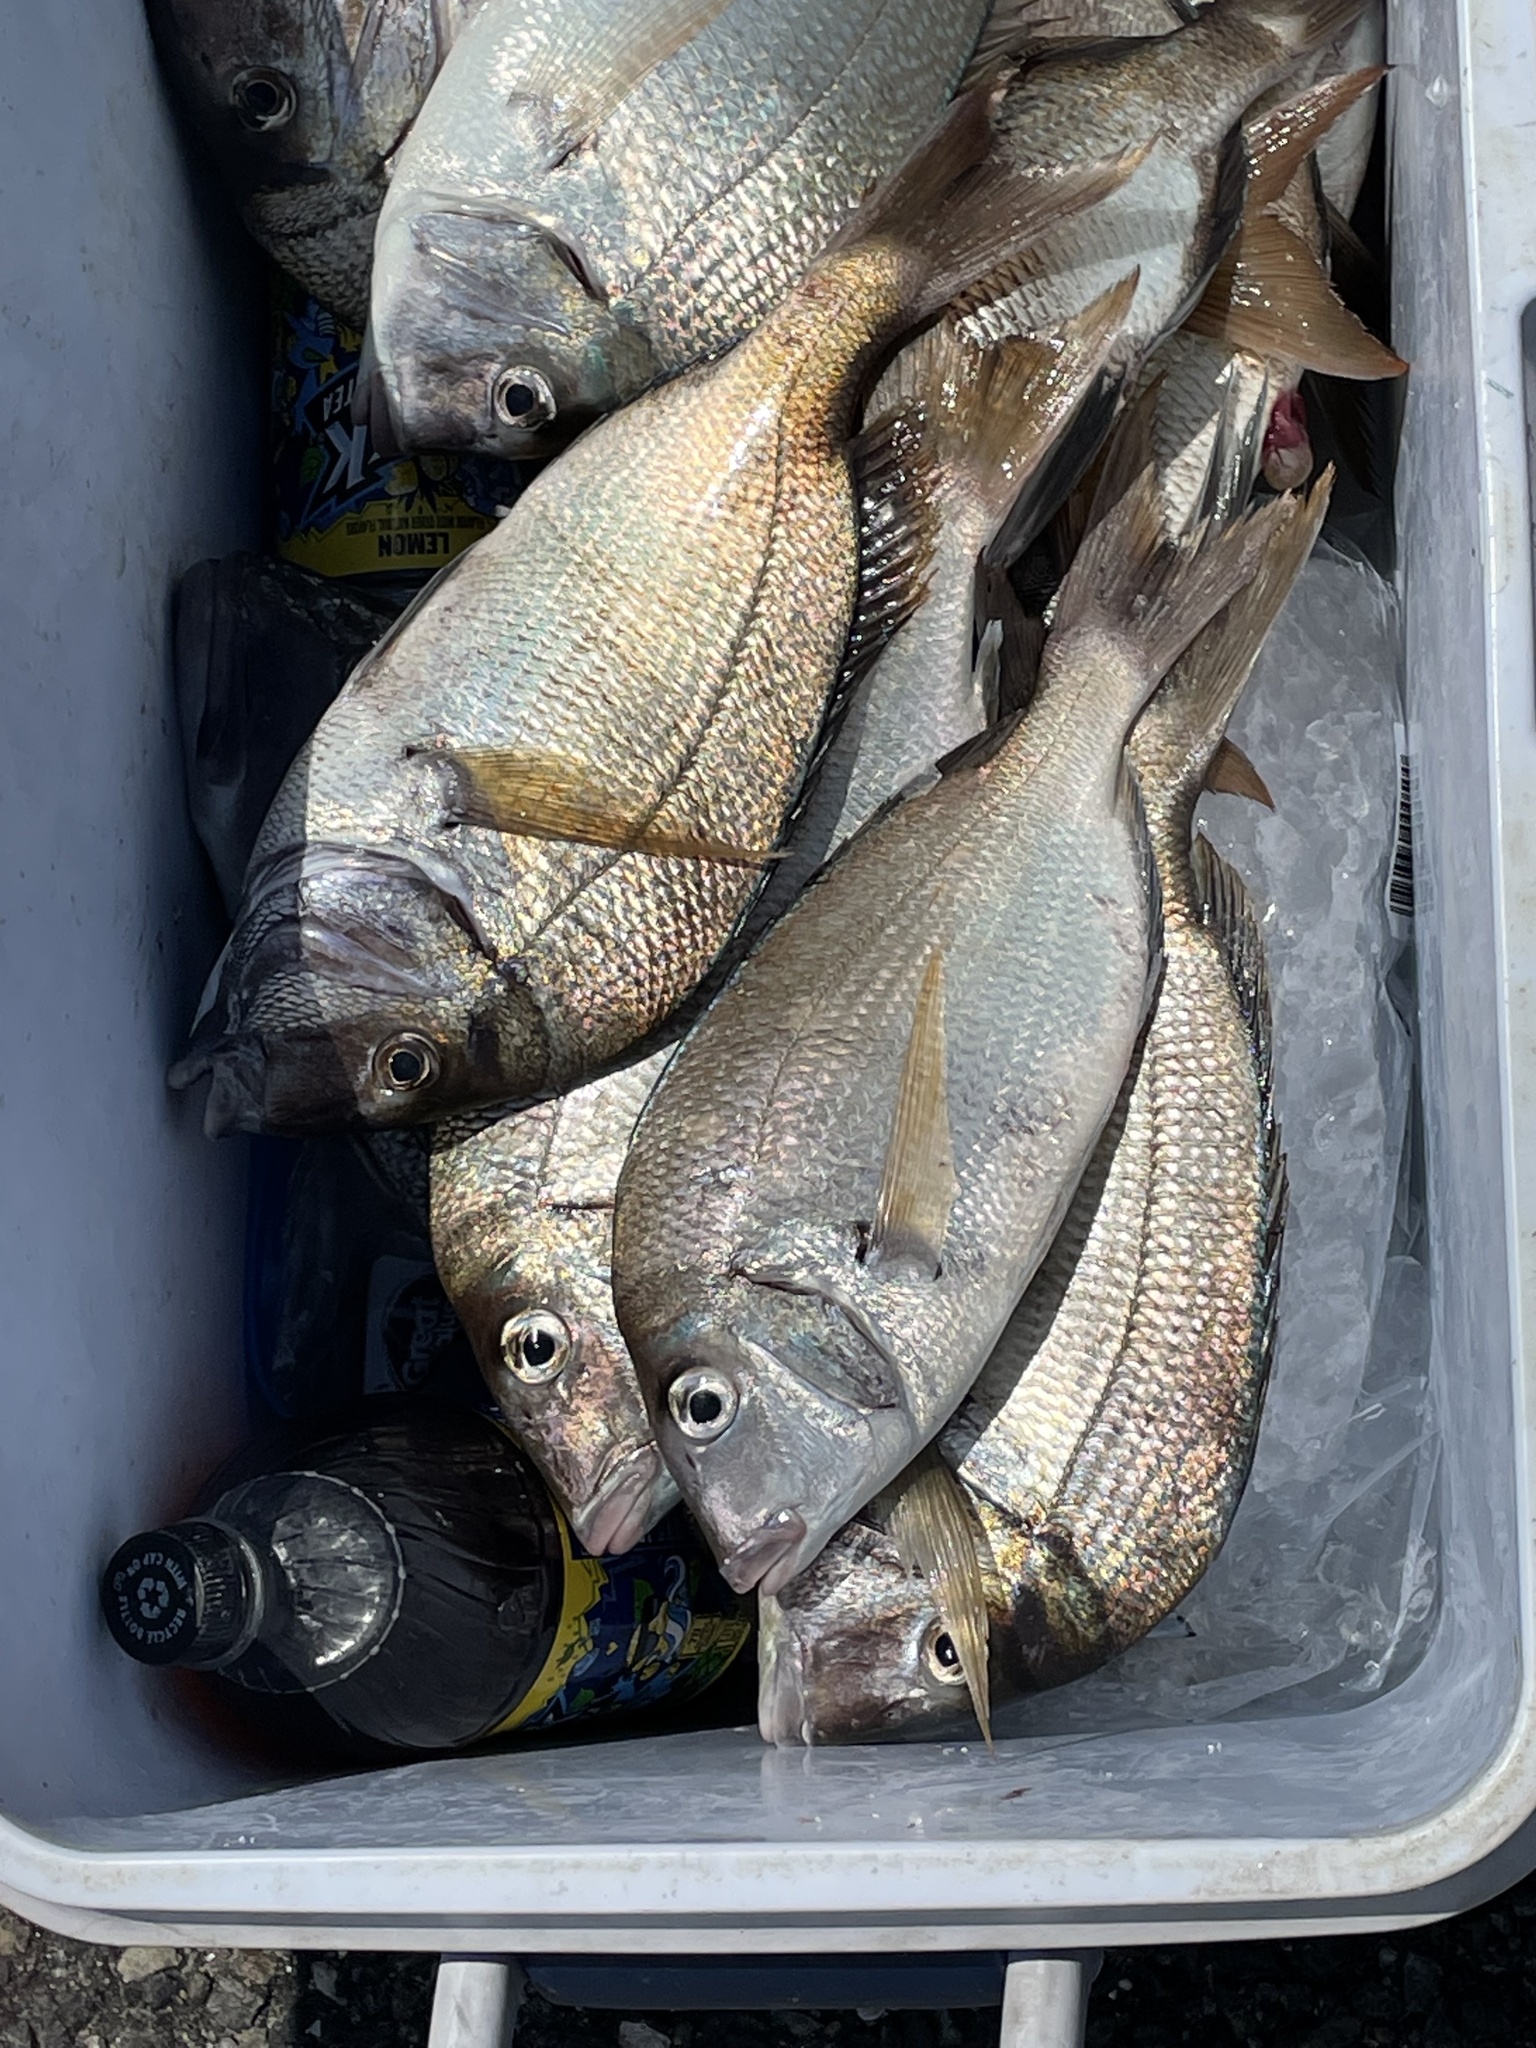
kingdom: Animalia
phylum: Chordata
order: Perciformes
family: Sparidae
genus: Stenotomus
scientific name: Stenotomus chrysops
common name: Scup
